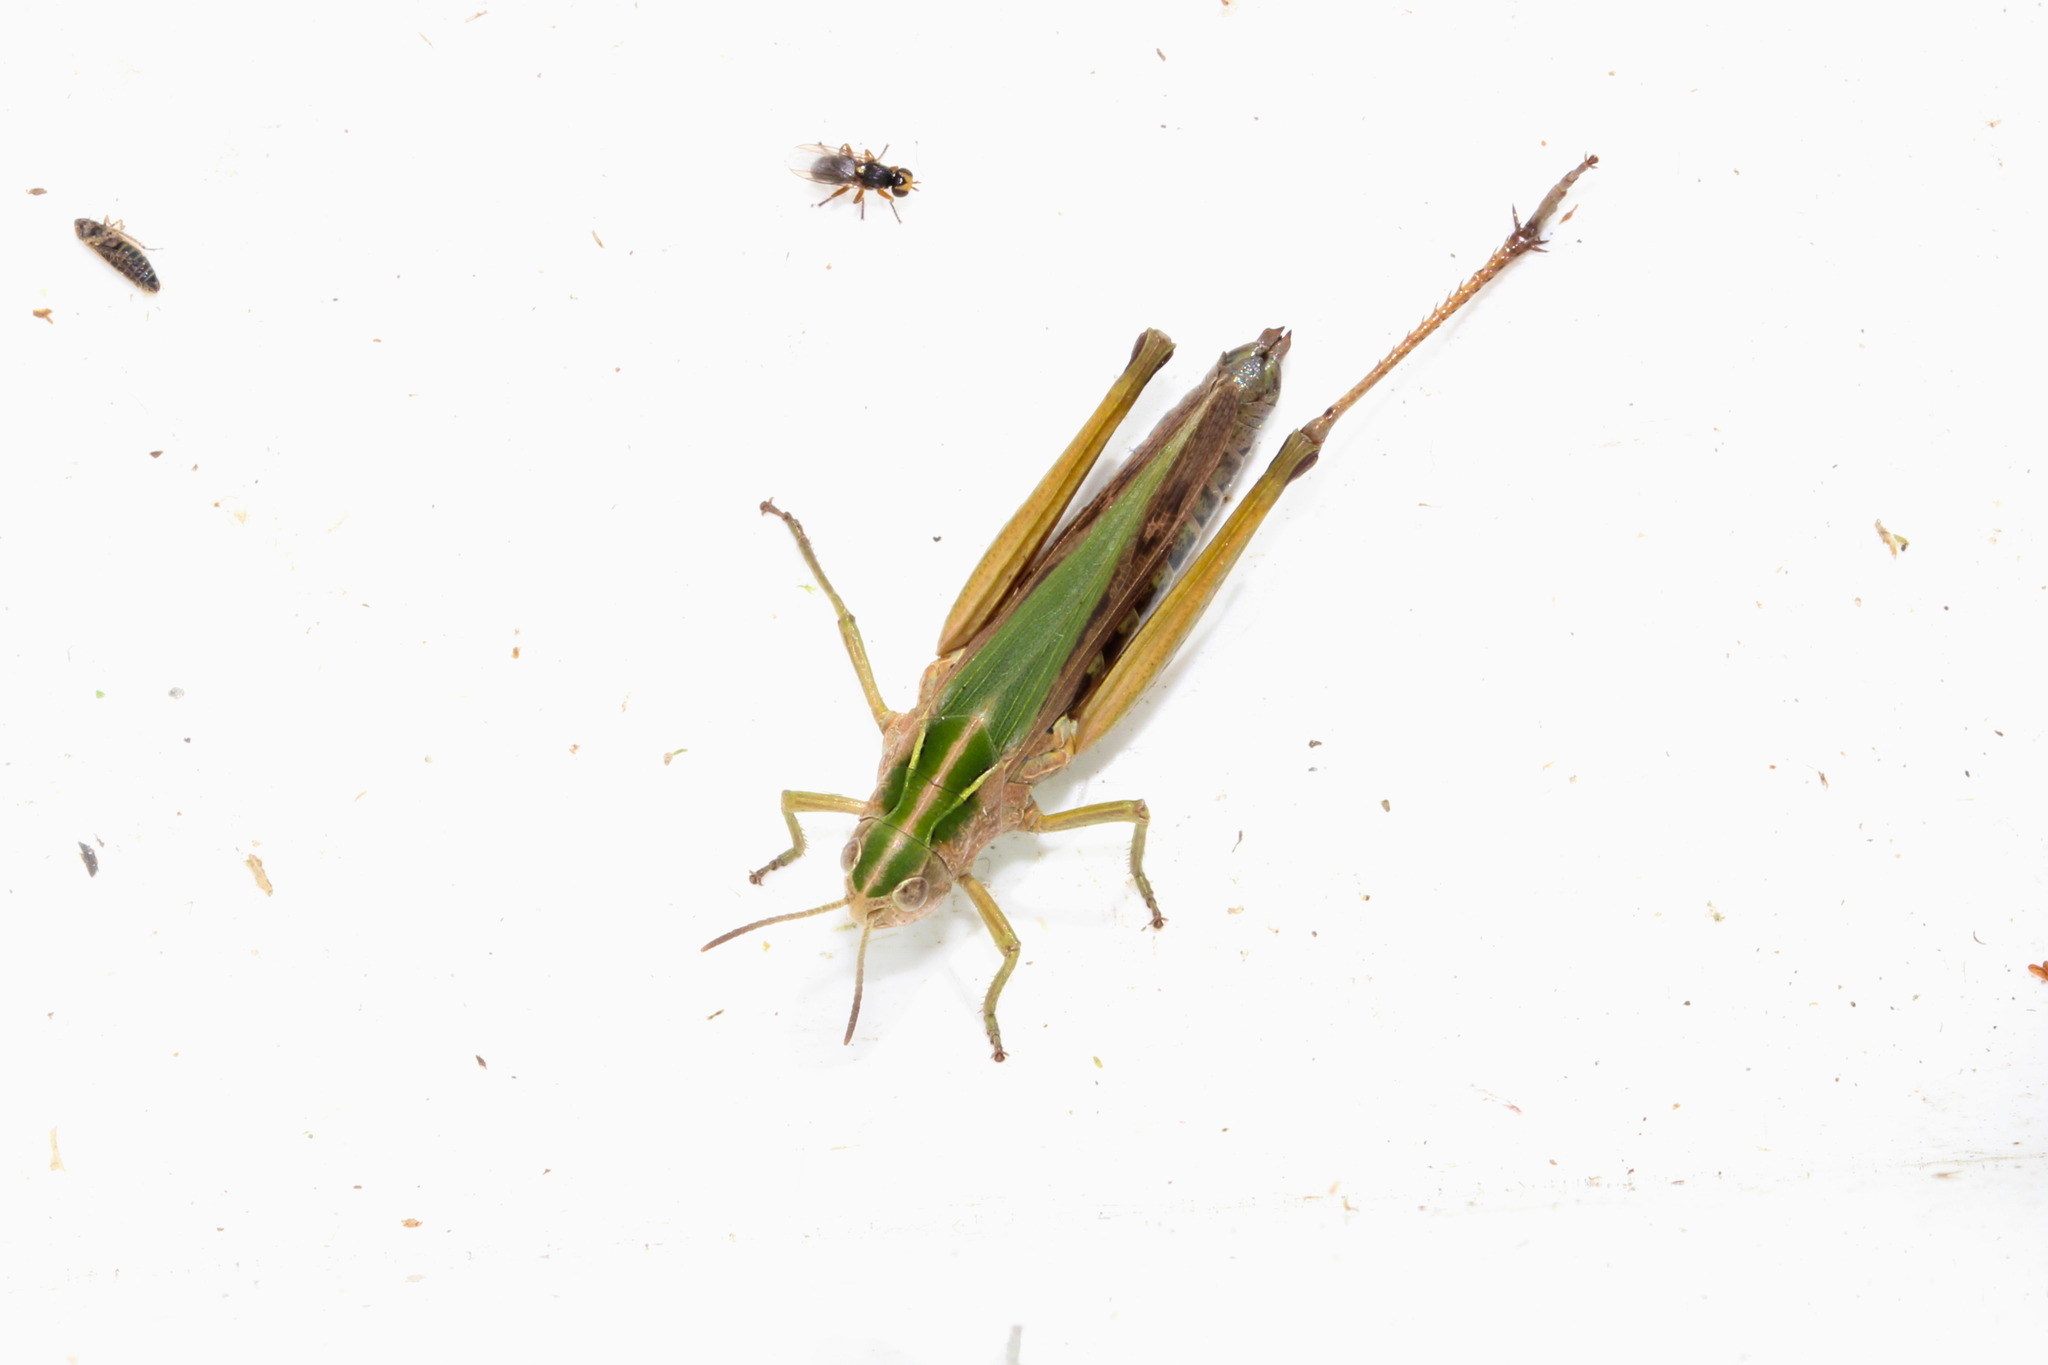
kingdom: Animalia
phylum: Arthropoda
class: Insecta
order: Orthoptera
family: Acrididae
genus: Omocestus
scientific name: Omocestus viridulus
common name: Common green grasshopper
